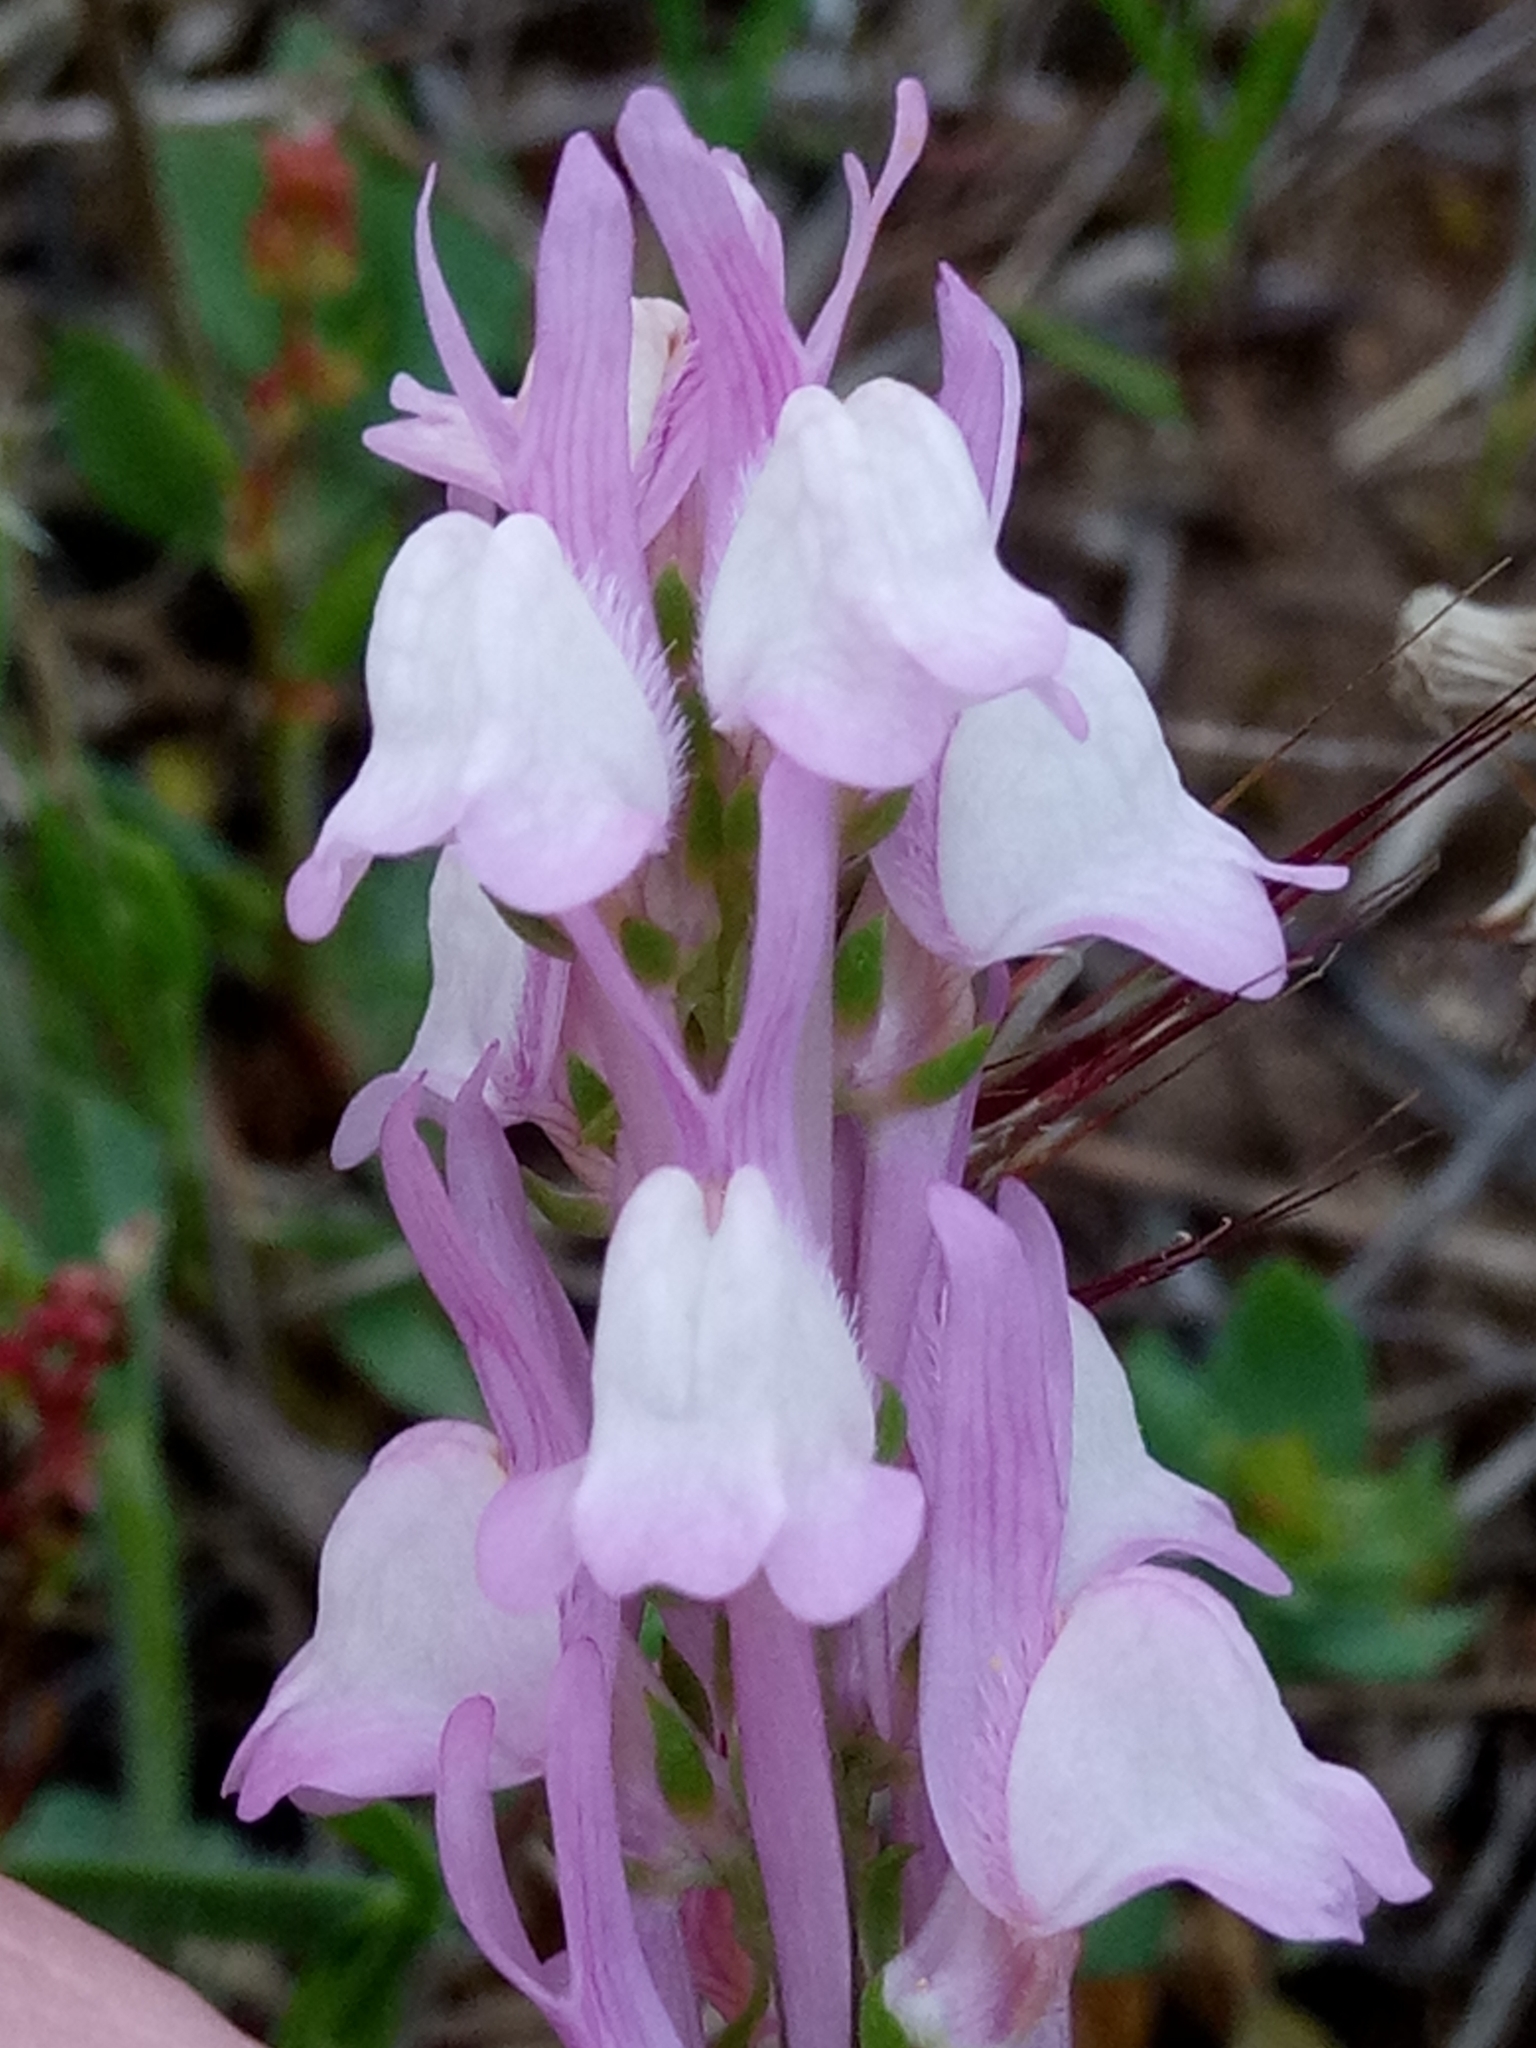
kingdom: Plantae
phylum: Tracheophyta
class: Magnoliopsida
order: Lamiales
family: Plantaginaceae
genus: Linaria
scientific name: Linaria virgata
